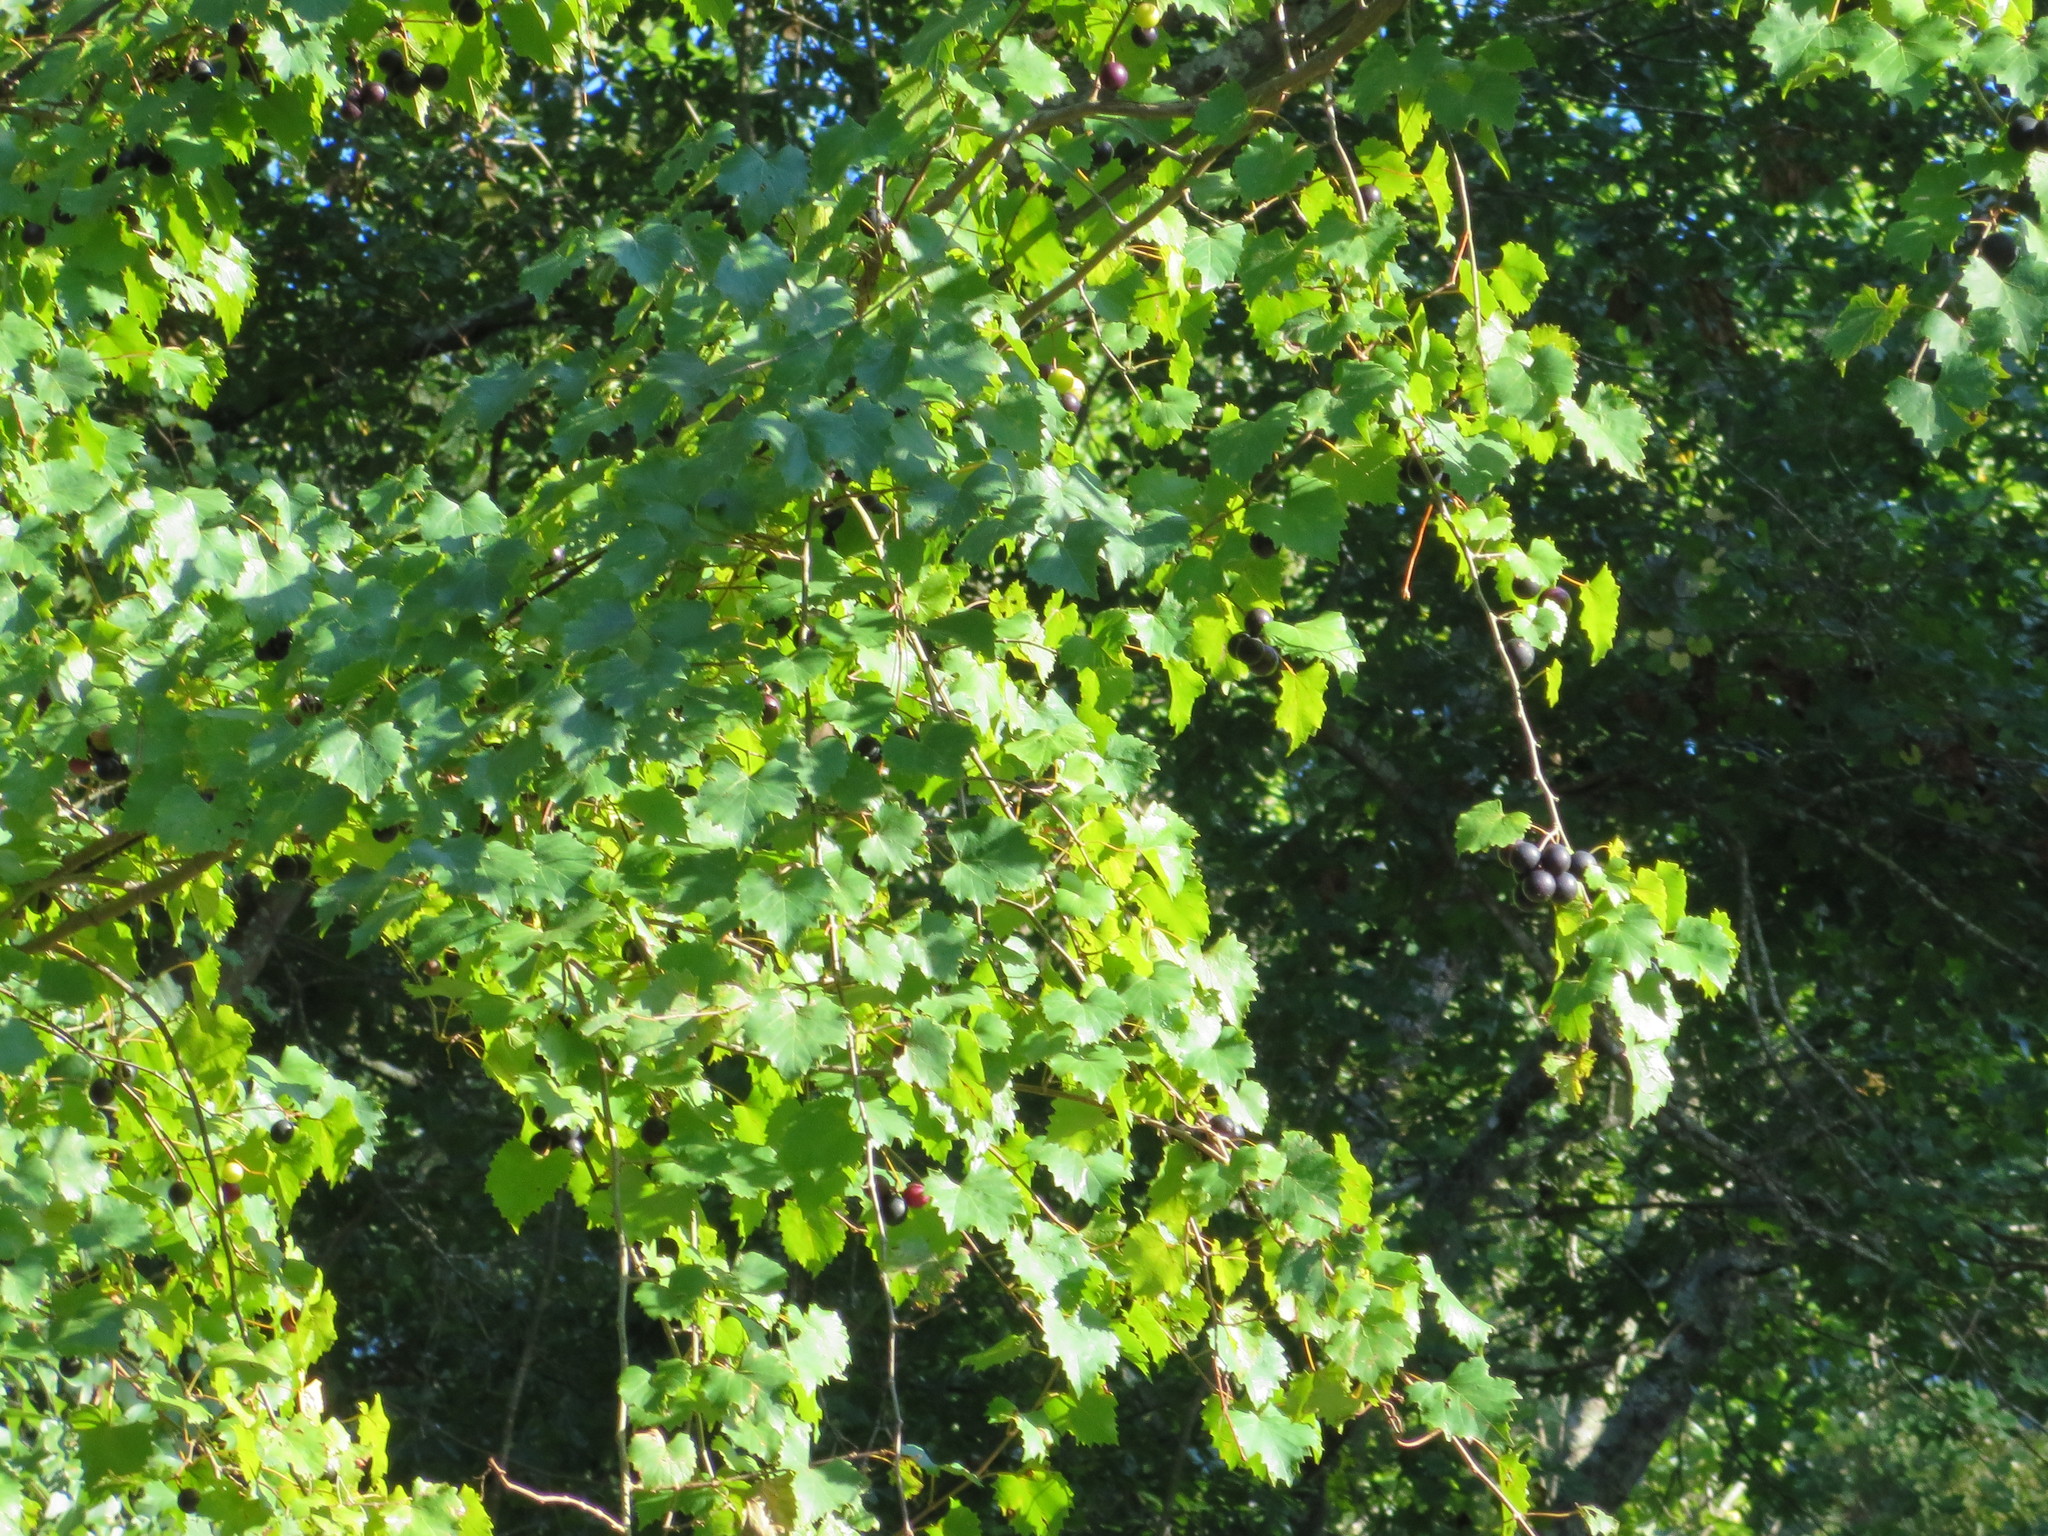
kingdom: Plantae
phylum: Tracheophyta
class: Magnoliopsida
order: Vitales
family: Vitaceae
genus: Vitis
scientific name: Vitis rotundifolia
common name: Muscadine grape
